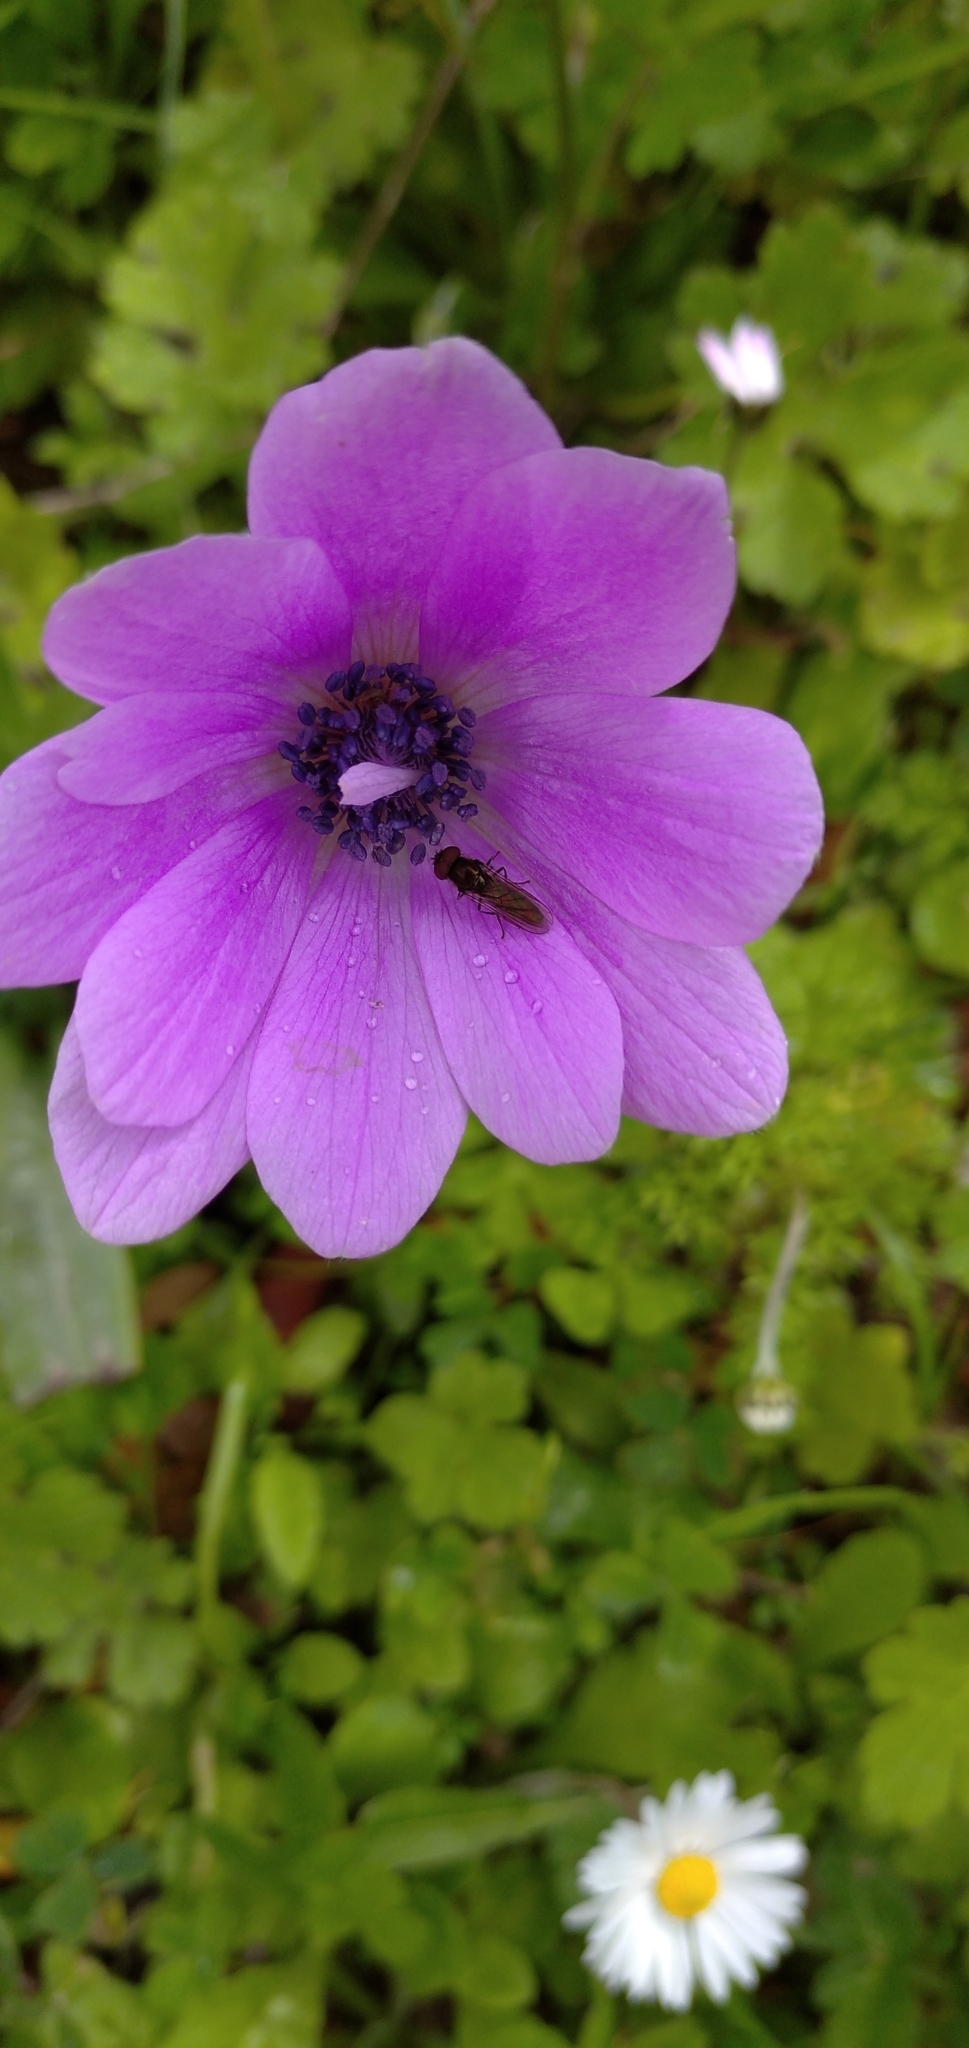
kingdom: Plantae
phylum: Tracheophyta
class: Magnoliopsida
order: Ranunculales
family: Ranunculaceae
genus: Anemone
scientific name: Anemone pavonina
